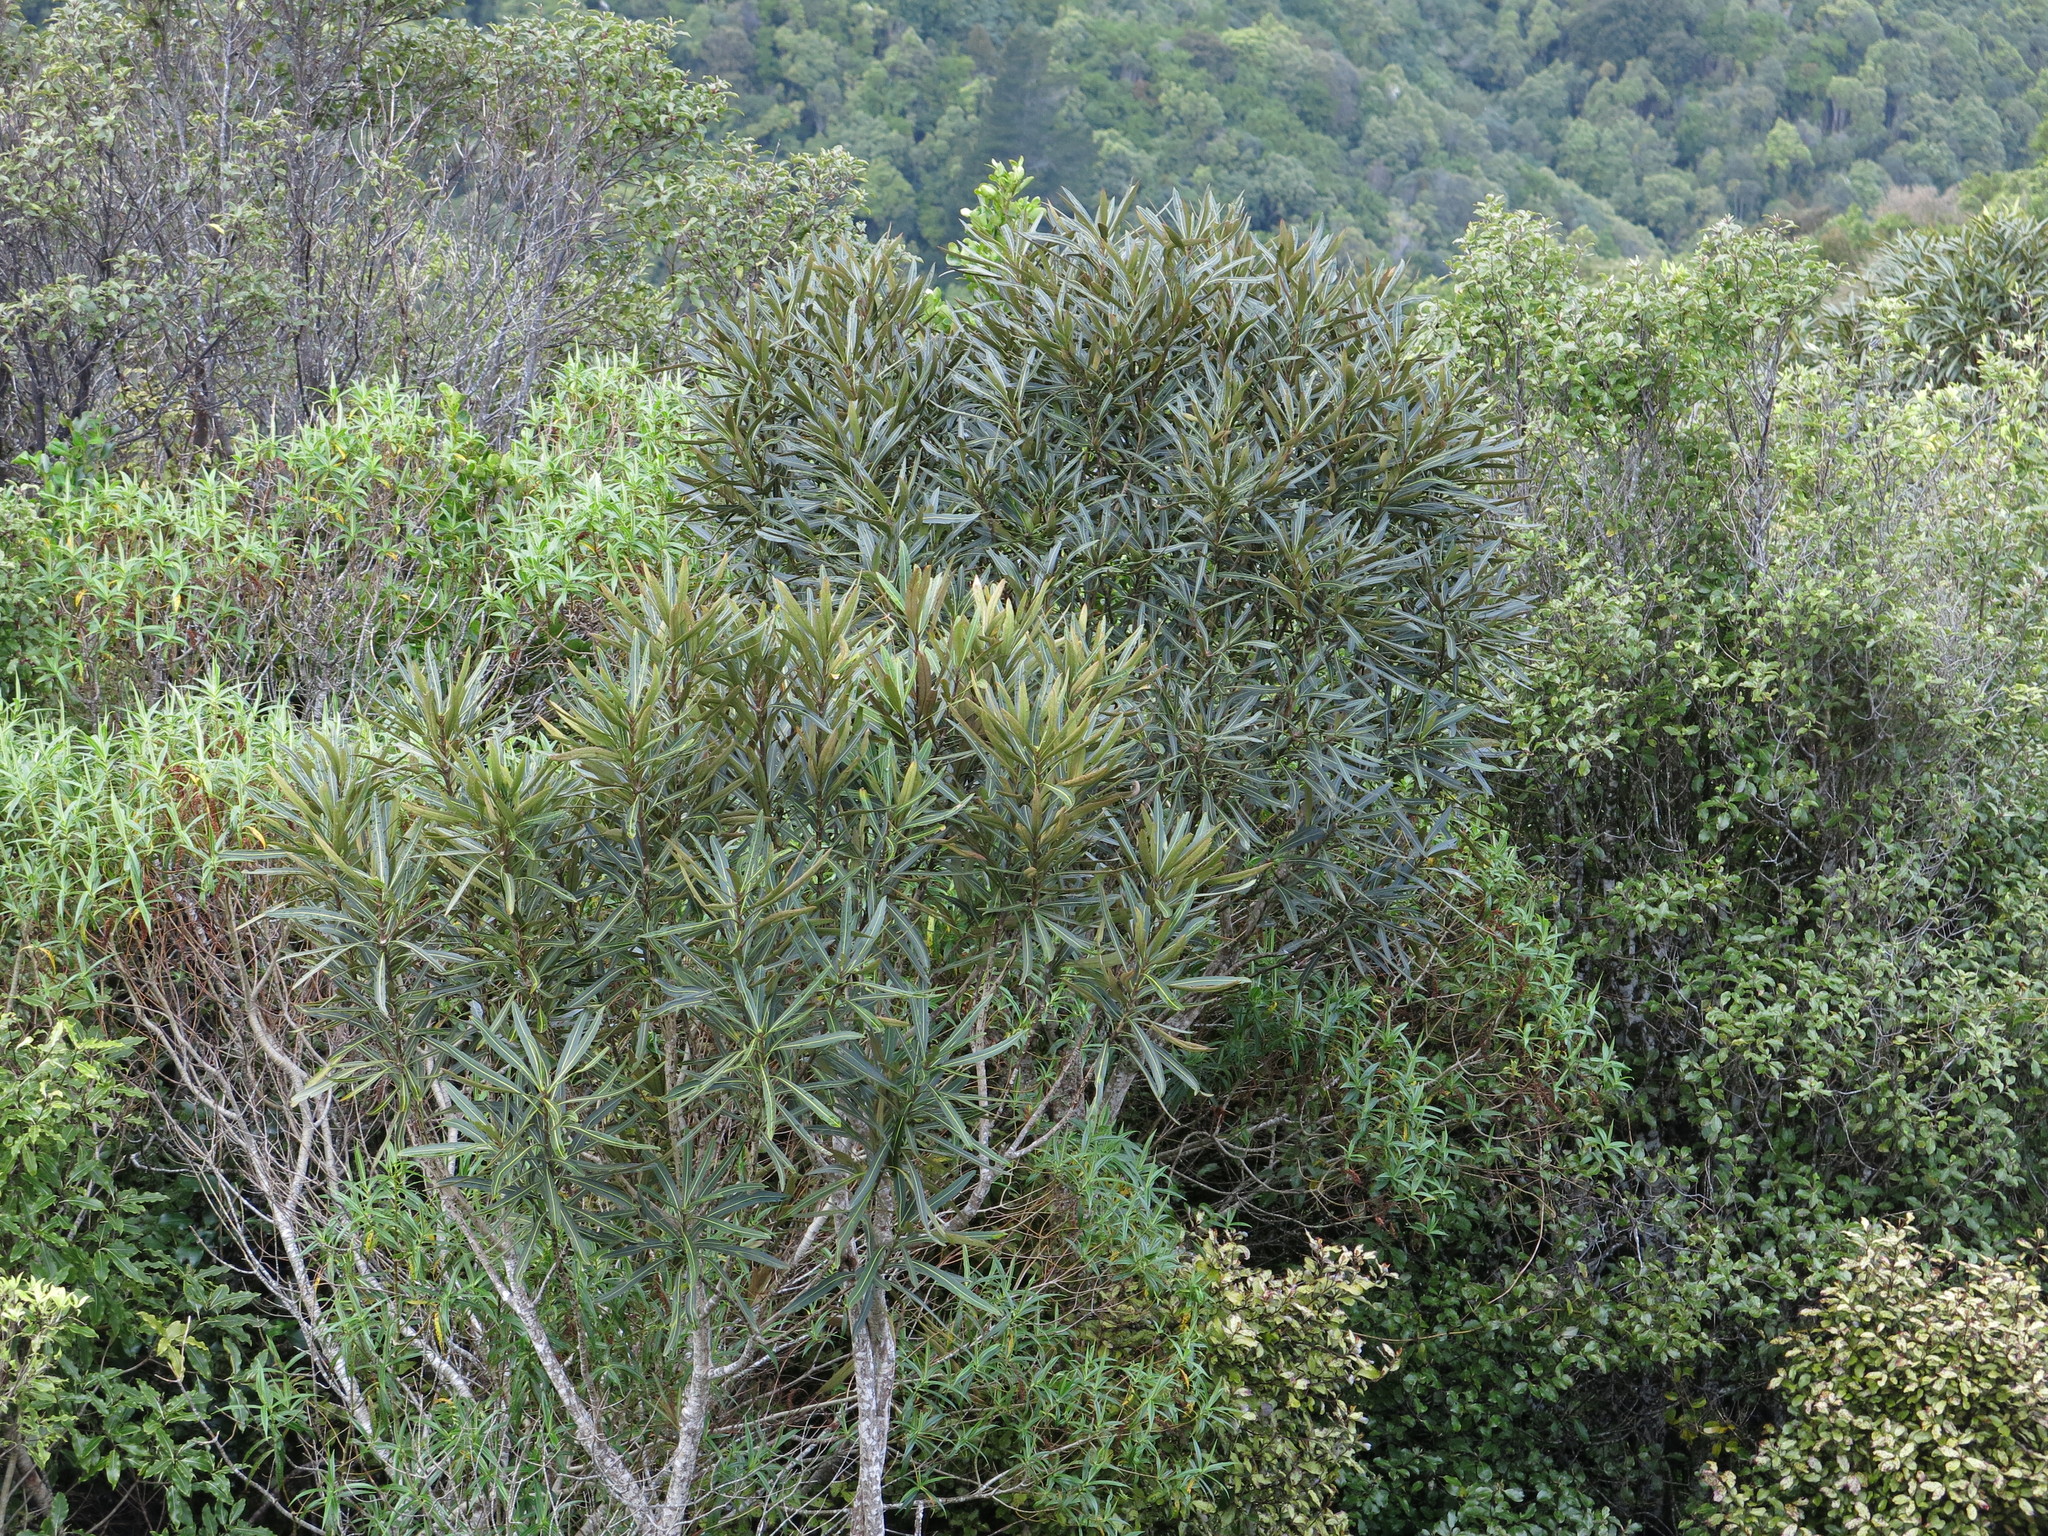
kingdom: Plantae
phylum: Tracheophyta
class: Magnoliopsida
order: Apiales
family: Araliaceae
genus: Pseudopanax
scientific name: Pseudopanax crassifolius
